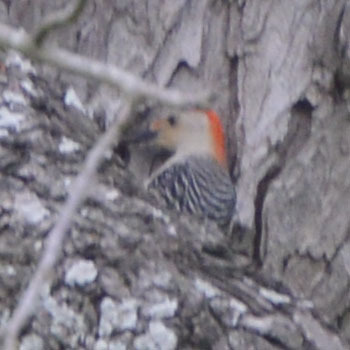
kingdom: Animalia
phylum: Chordata
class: Aves
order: Piciformes
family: Picidae
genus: Melanerpes
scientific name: Melanerpes carolinus
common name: Red-bellied woodpecker
